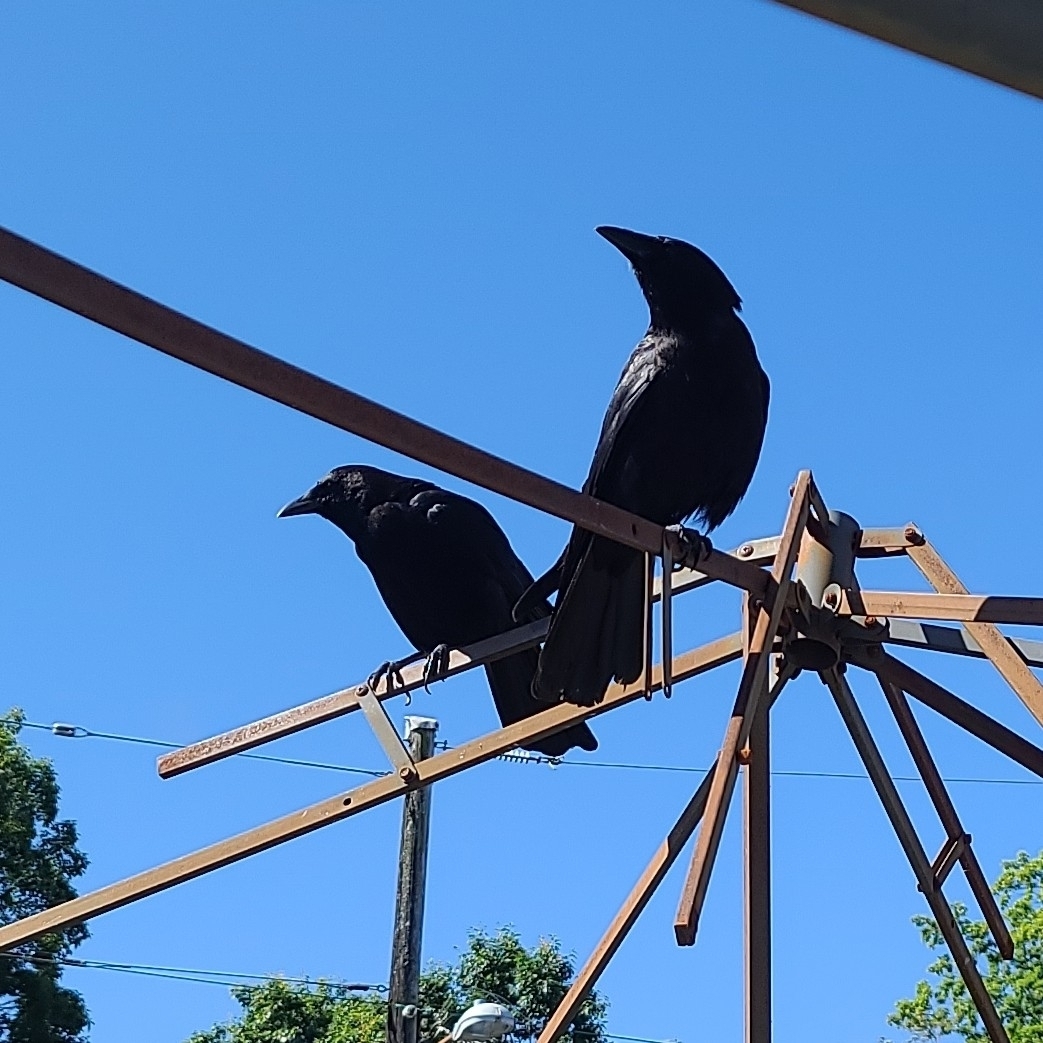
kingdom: Animalia
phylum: Chordata
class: Aves
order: Passeriformes
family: Corvidae
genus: Corvus
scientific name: Corvus brachyrhynchos
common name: American crow
